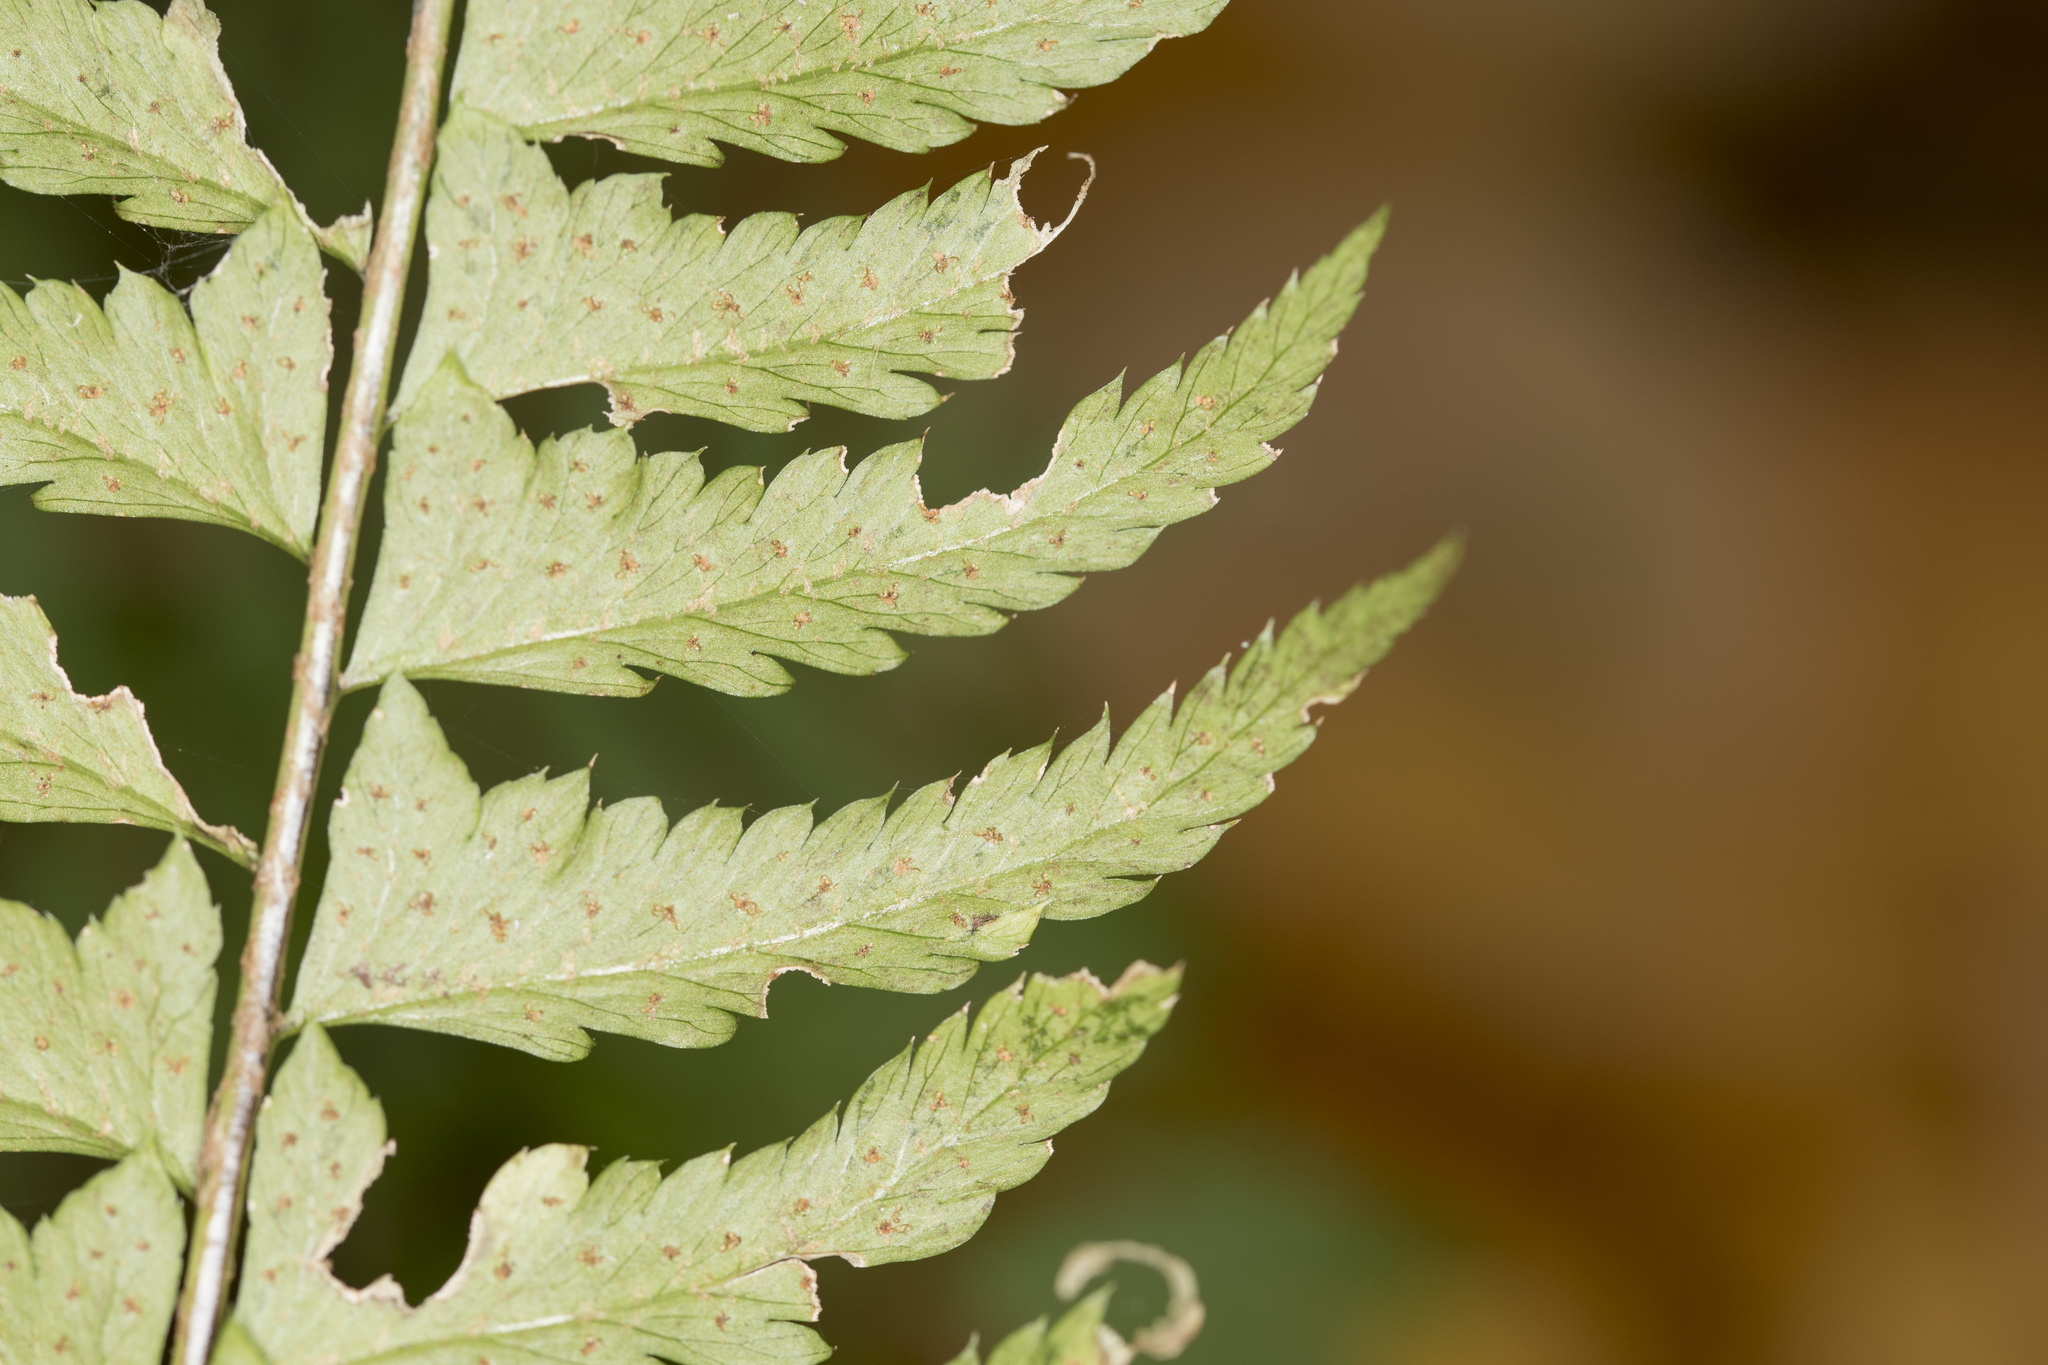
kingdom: Plantae
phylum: Tracheophyta
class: Polypodiopsida
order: Polypodiales
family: Dryopteridaceae
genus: Polystichum
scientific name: Polystichum tripteron
